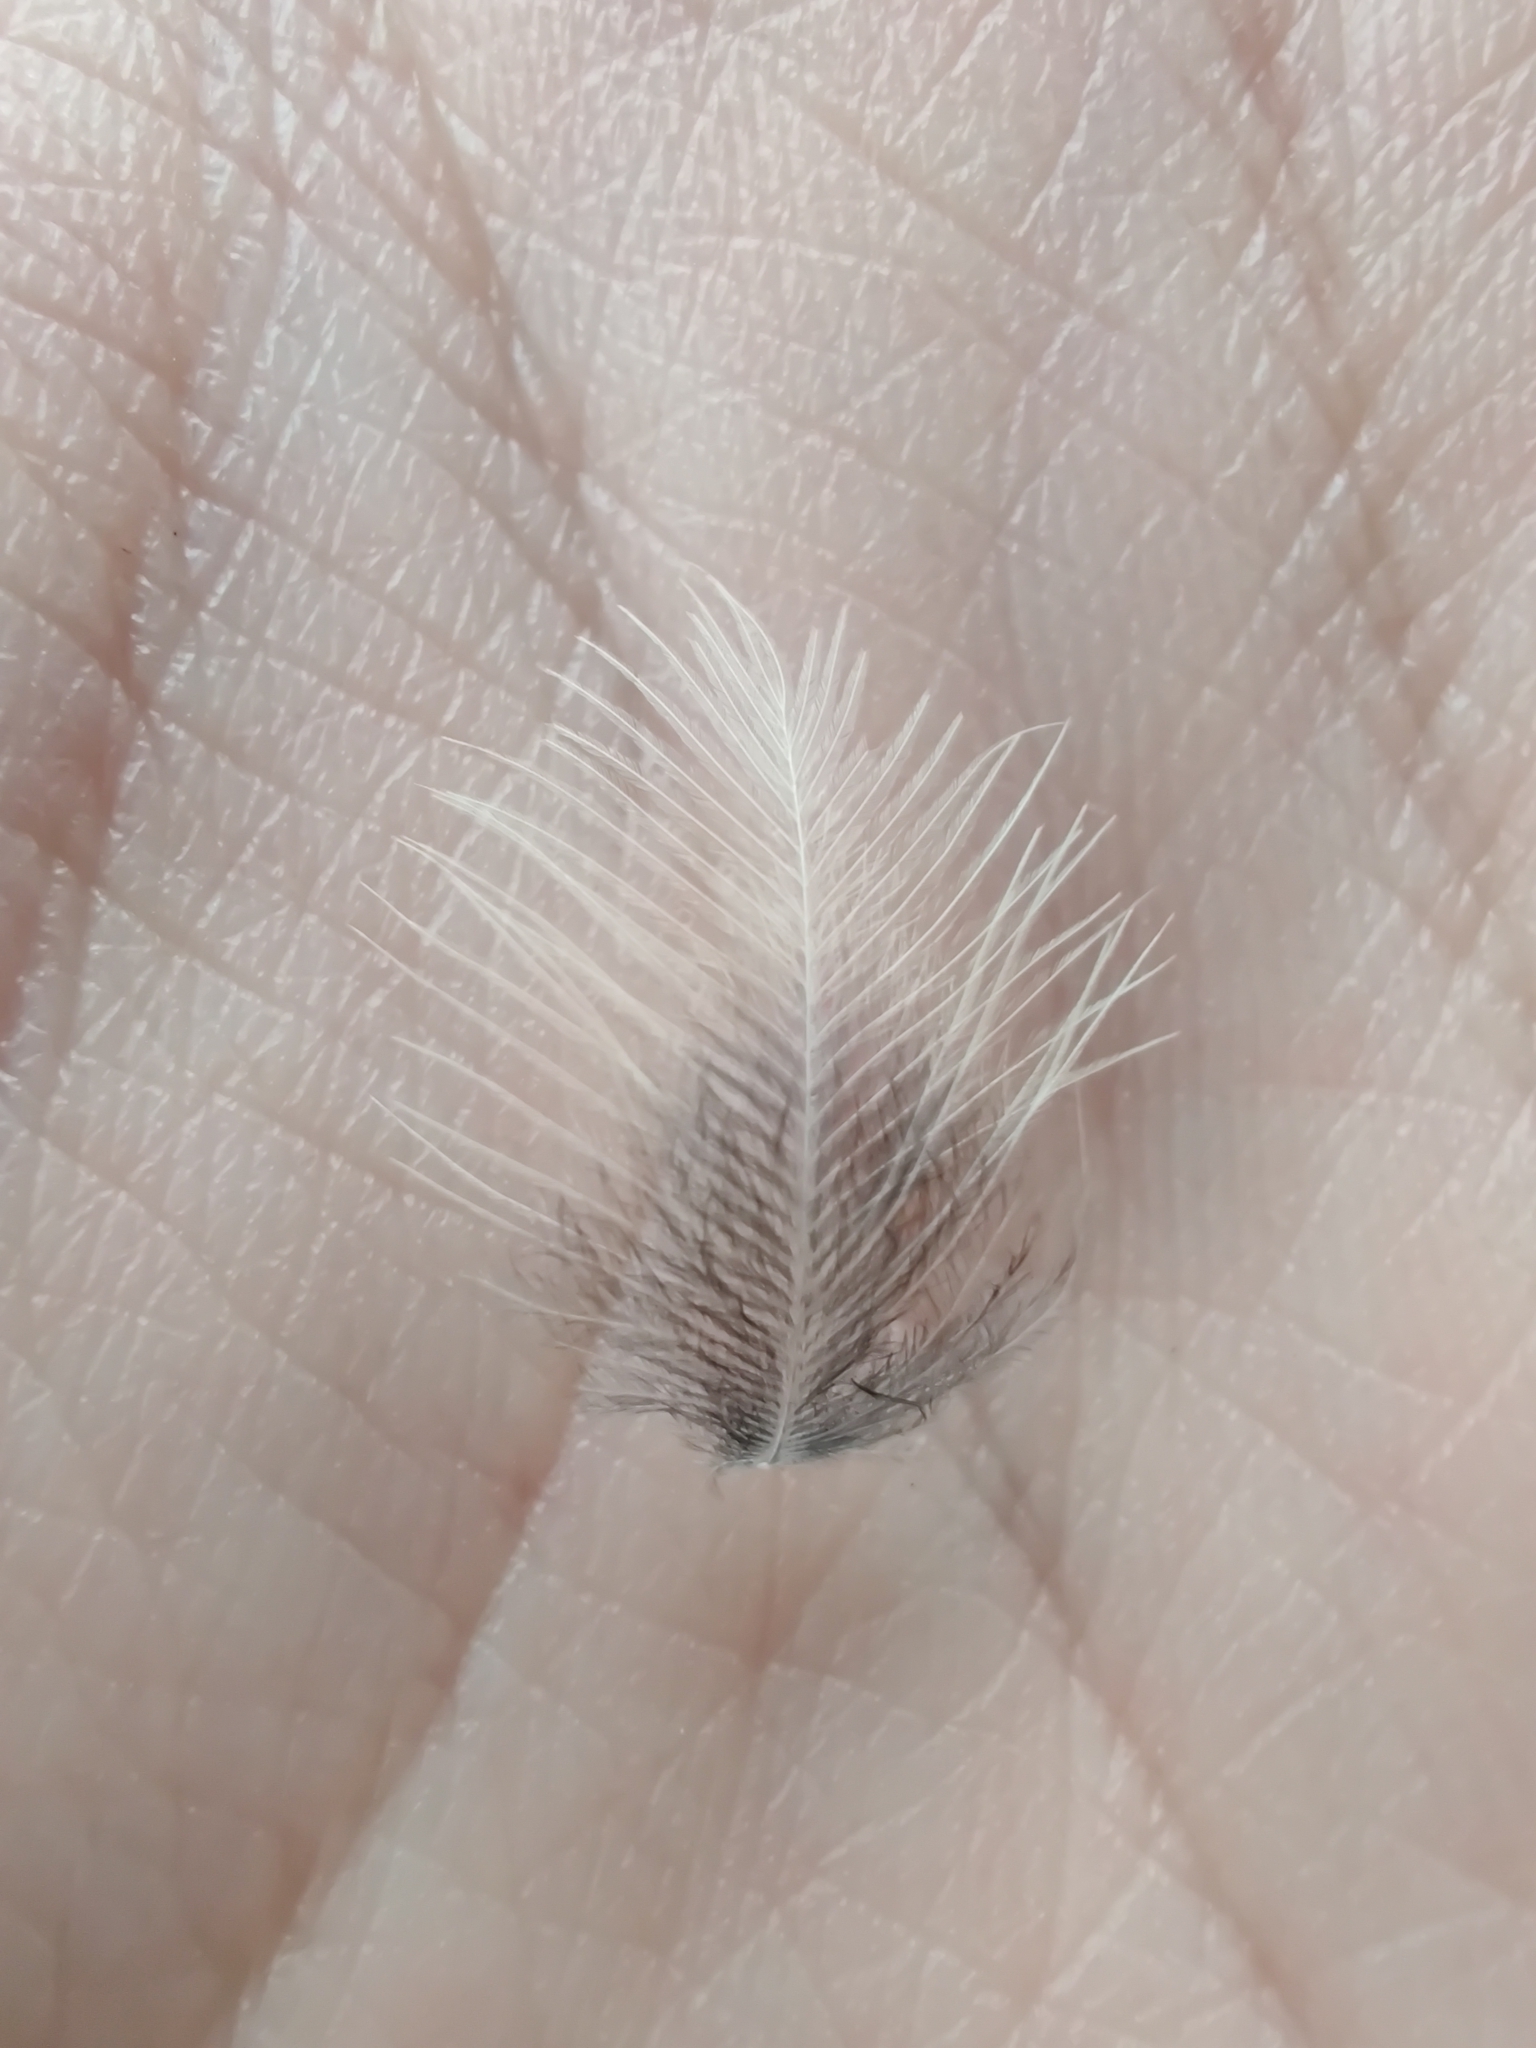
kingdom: Animalia
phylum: Chordata
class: Aves
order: Passeriformes
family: Paridae
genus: Poecile
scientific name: Poecile carolinensis
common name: Carolina chickadee
